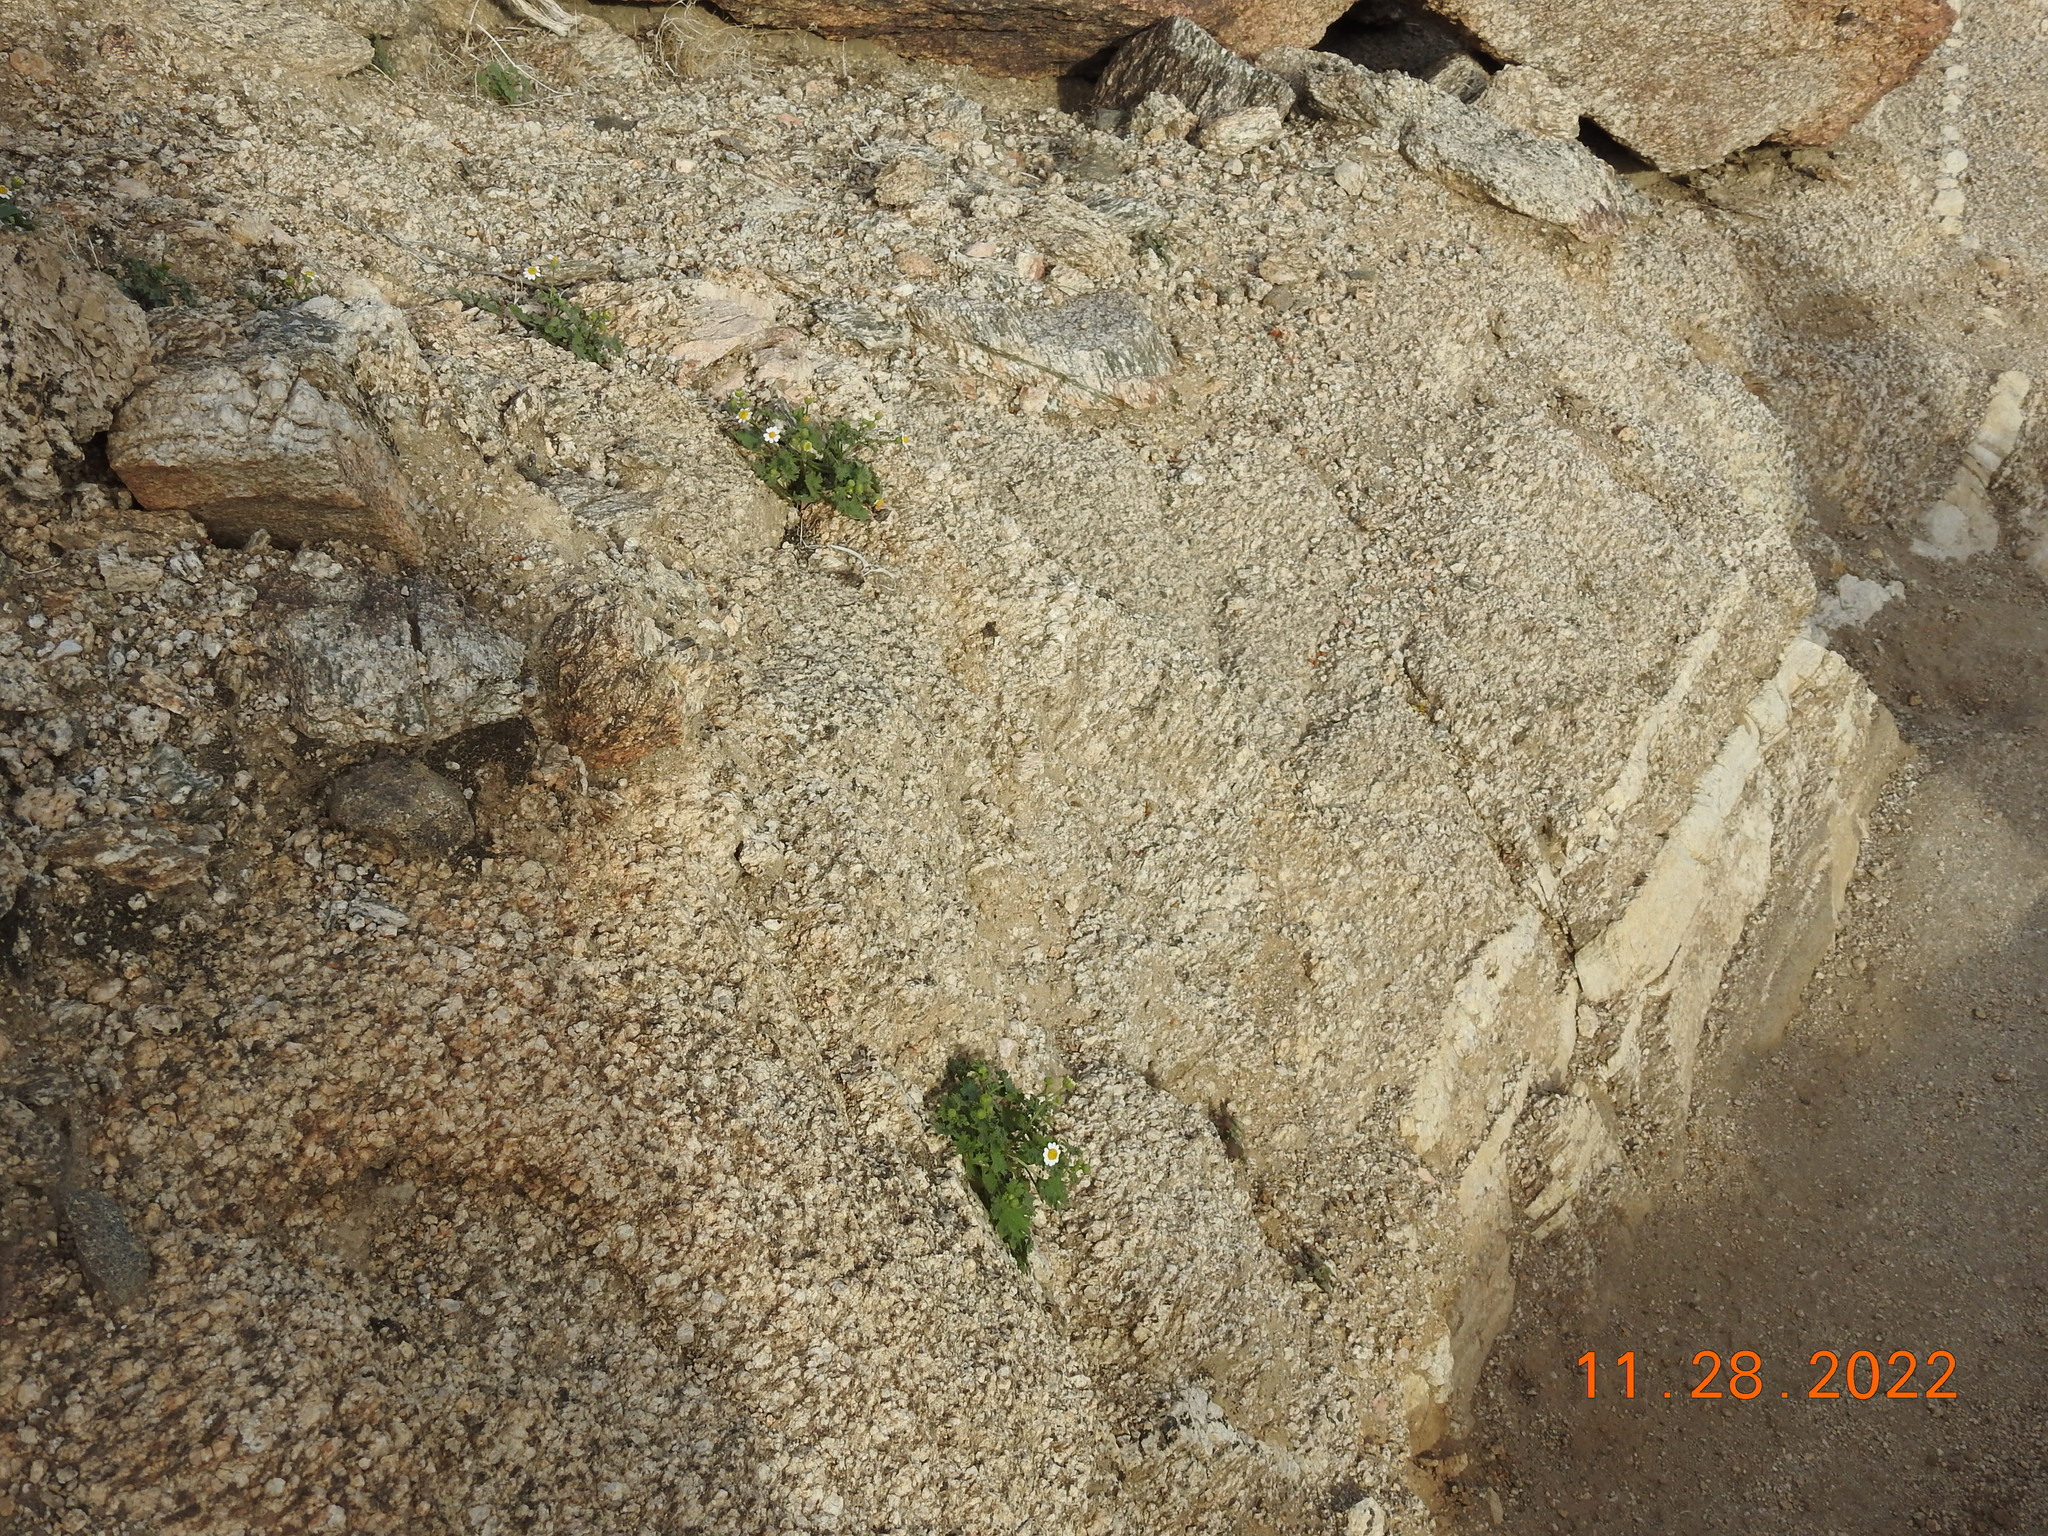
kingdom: Plantae
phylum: Tracheophyta
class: Magnoliopsida
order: Asterales
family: Asteraceae
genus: Laphamia
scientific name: Laphamia emoryi
